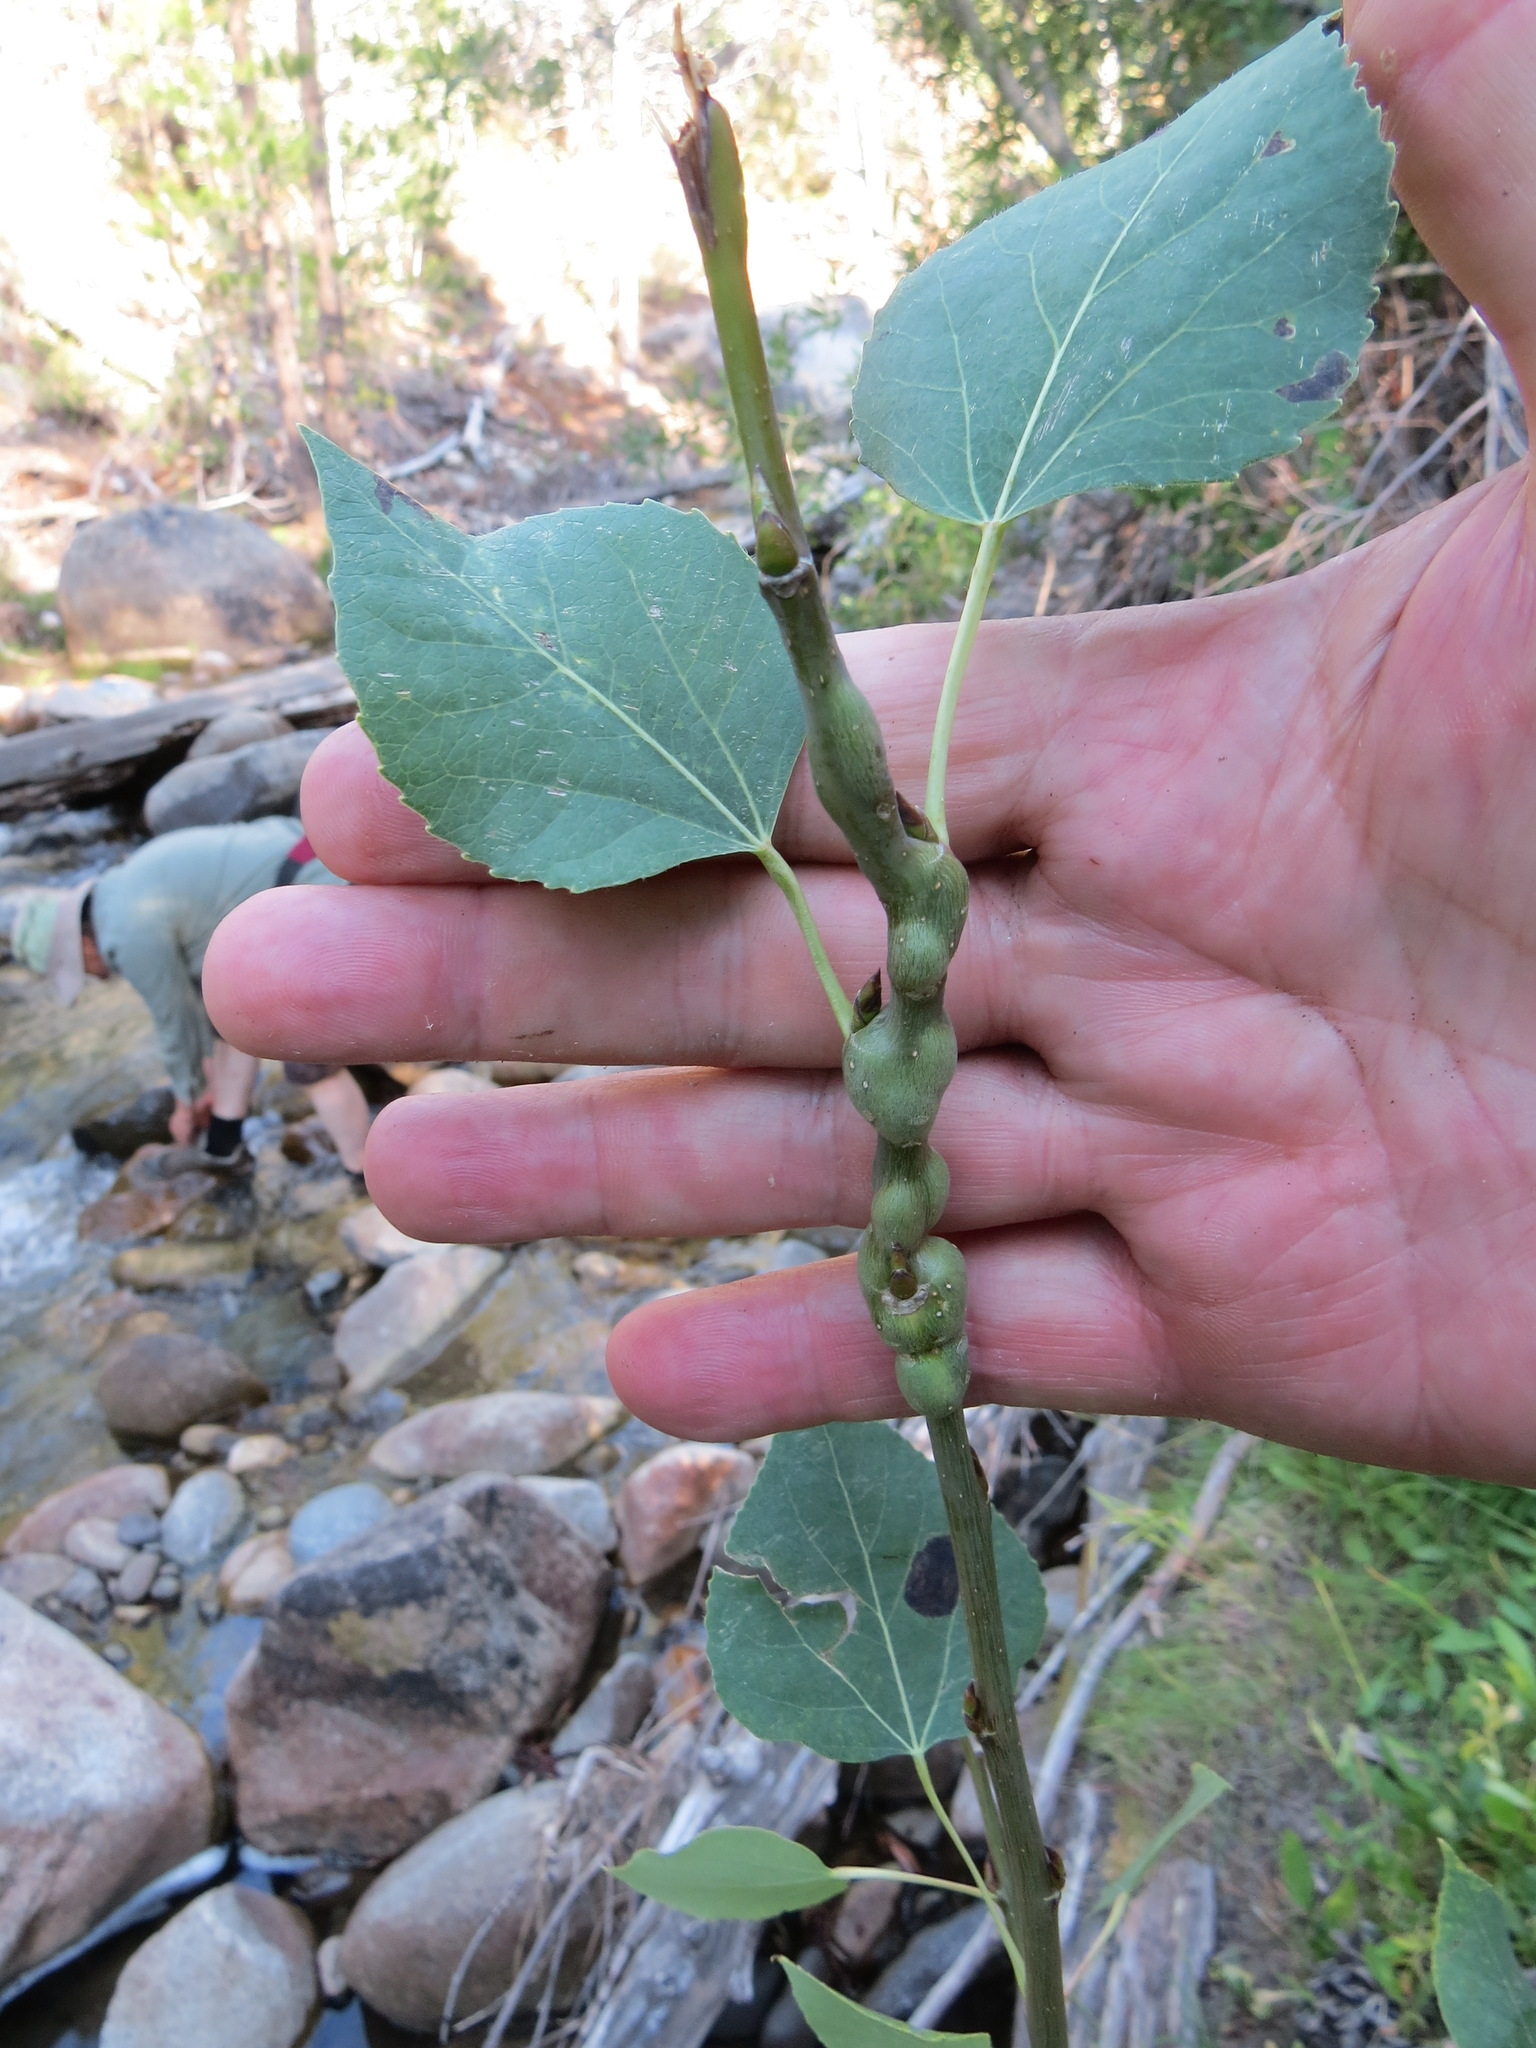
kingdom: Animalia
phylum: Arthropoda
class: Insecta
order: Diptera
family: Agromyzidae
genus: Euhexomyza
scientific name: Euhexomyza schineri
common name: Poplar twiggall fly
